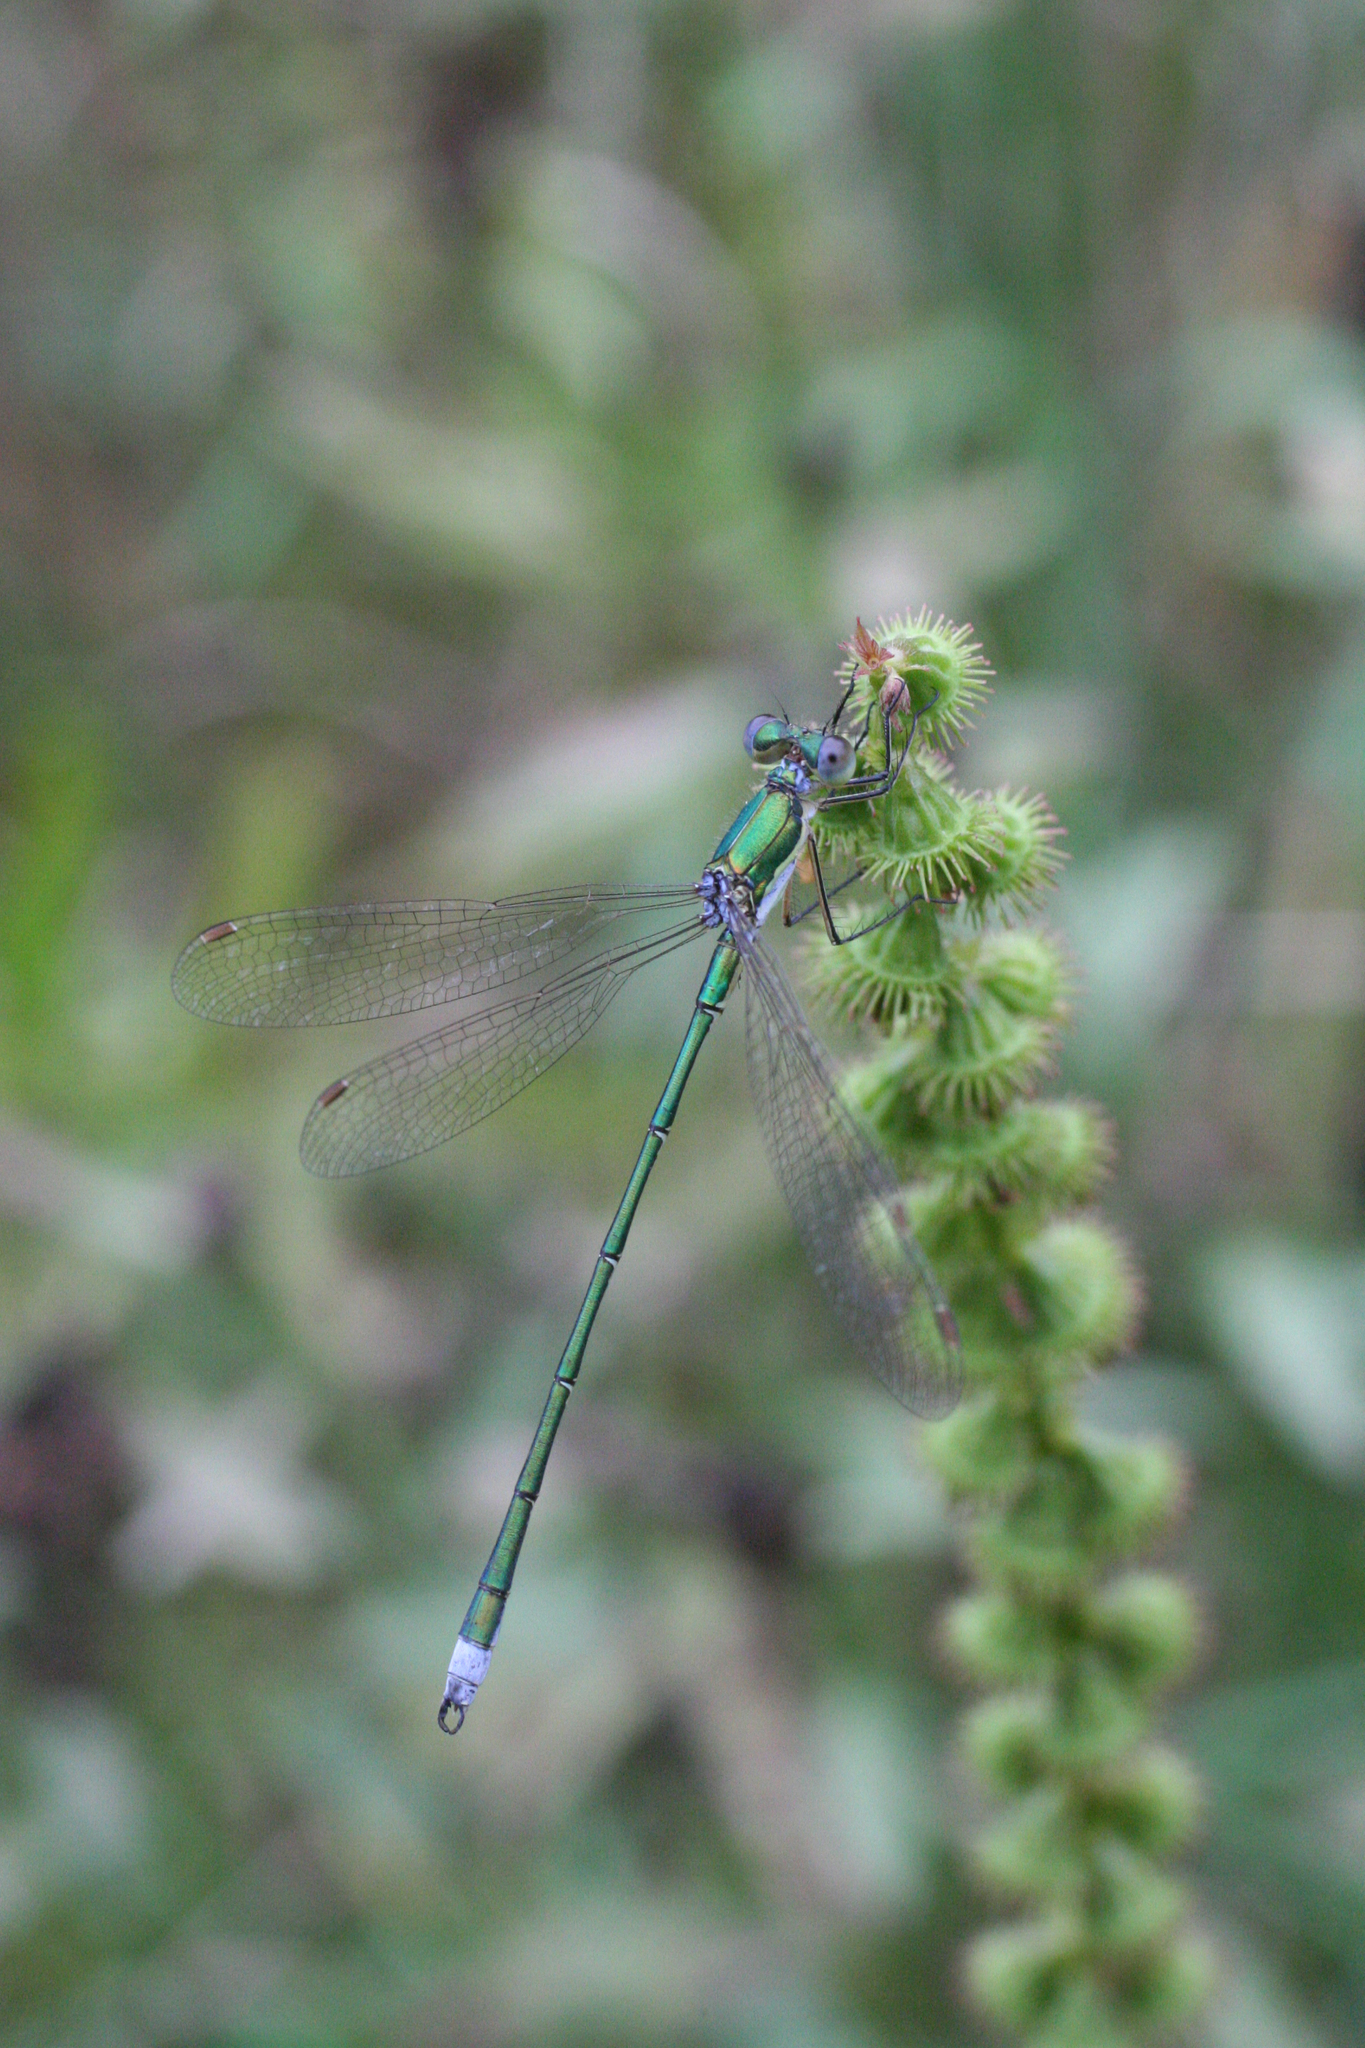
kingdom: Plantae
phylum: Tracheophyta
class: Magnoliopsida
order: Rosales
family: Rosaceae
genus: Agrimonia
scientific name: Agrimonia pilosa
